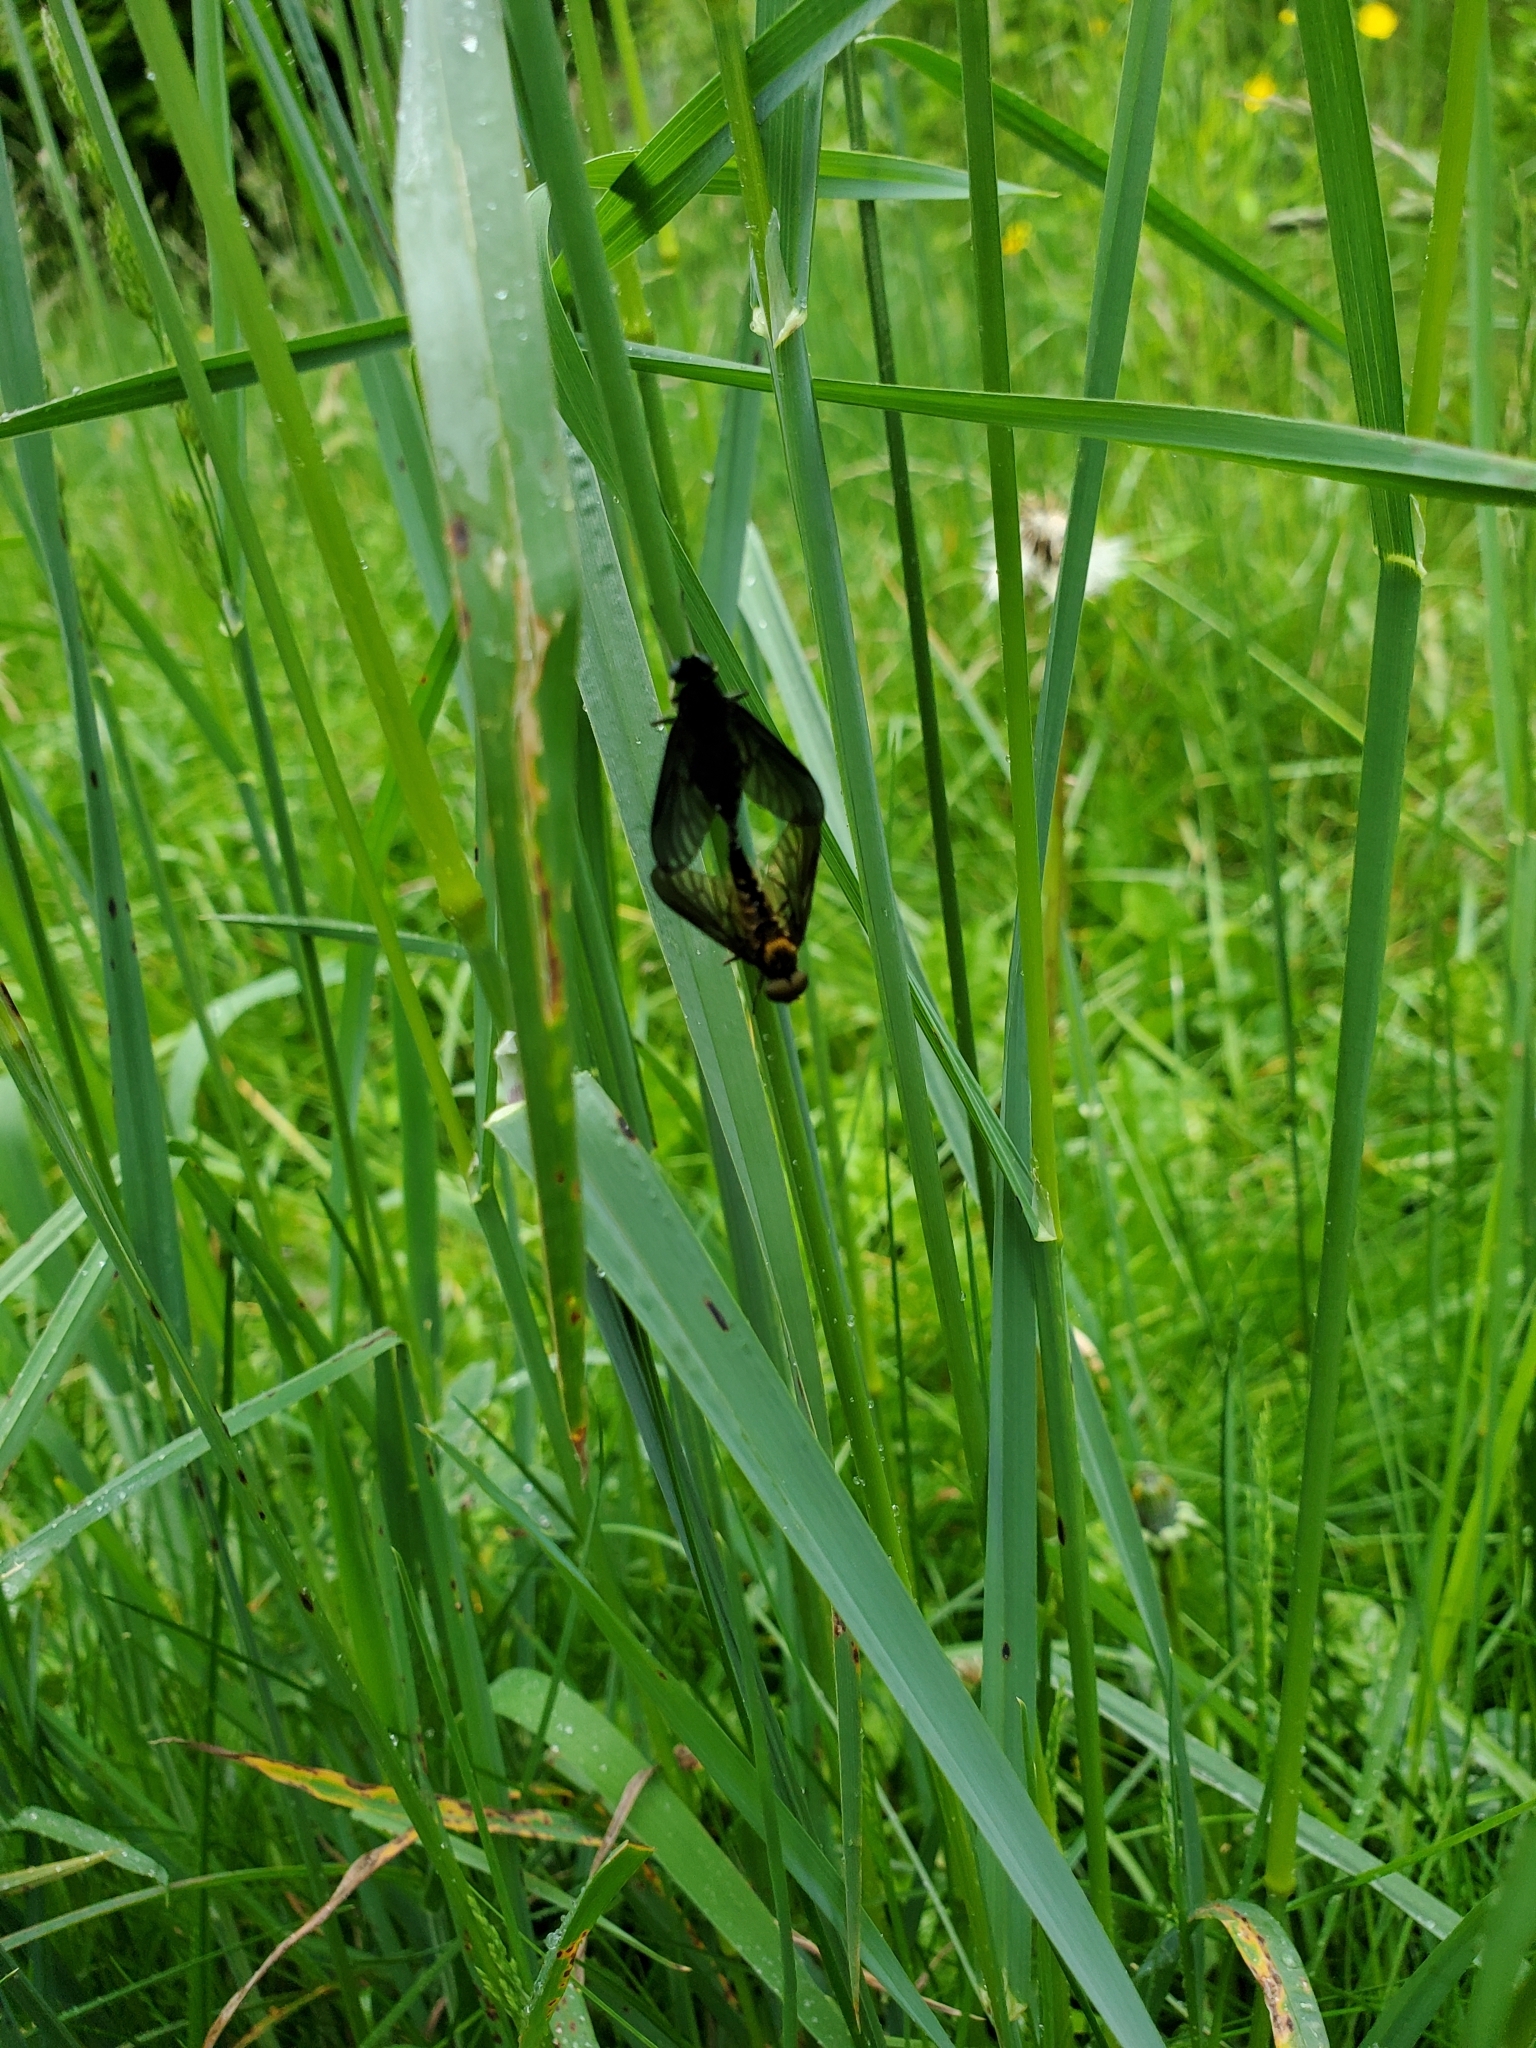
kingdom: Animalia
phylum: Arthropoda
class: Insecta
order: Diptera
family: Rhagionidae
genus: Chrysopilus
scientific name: Chrysopilus connexus
